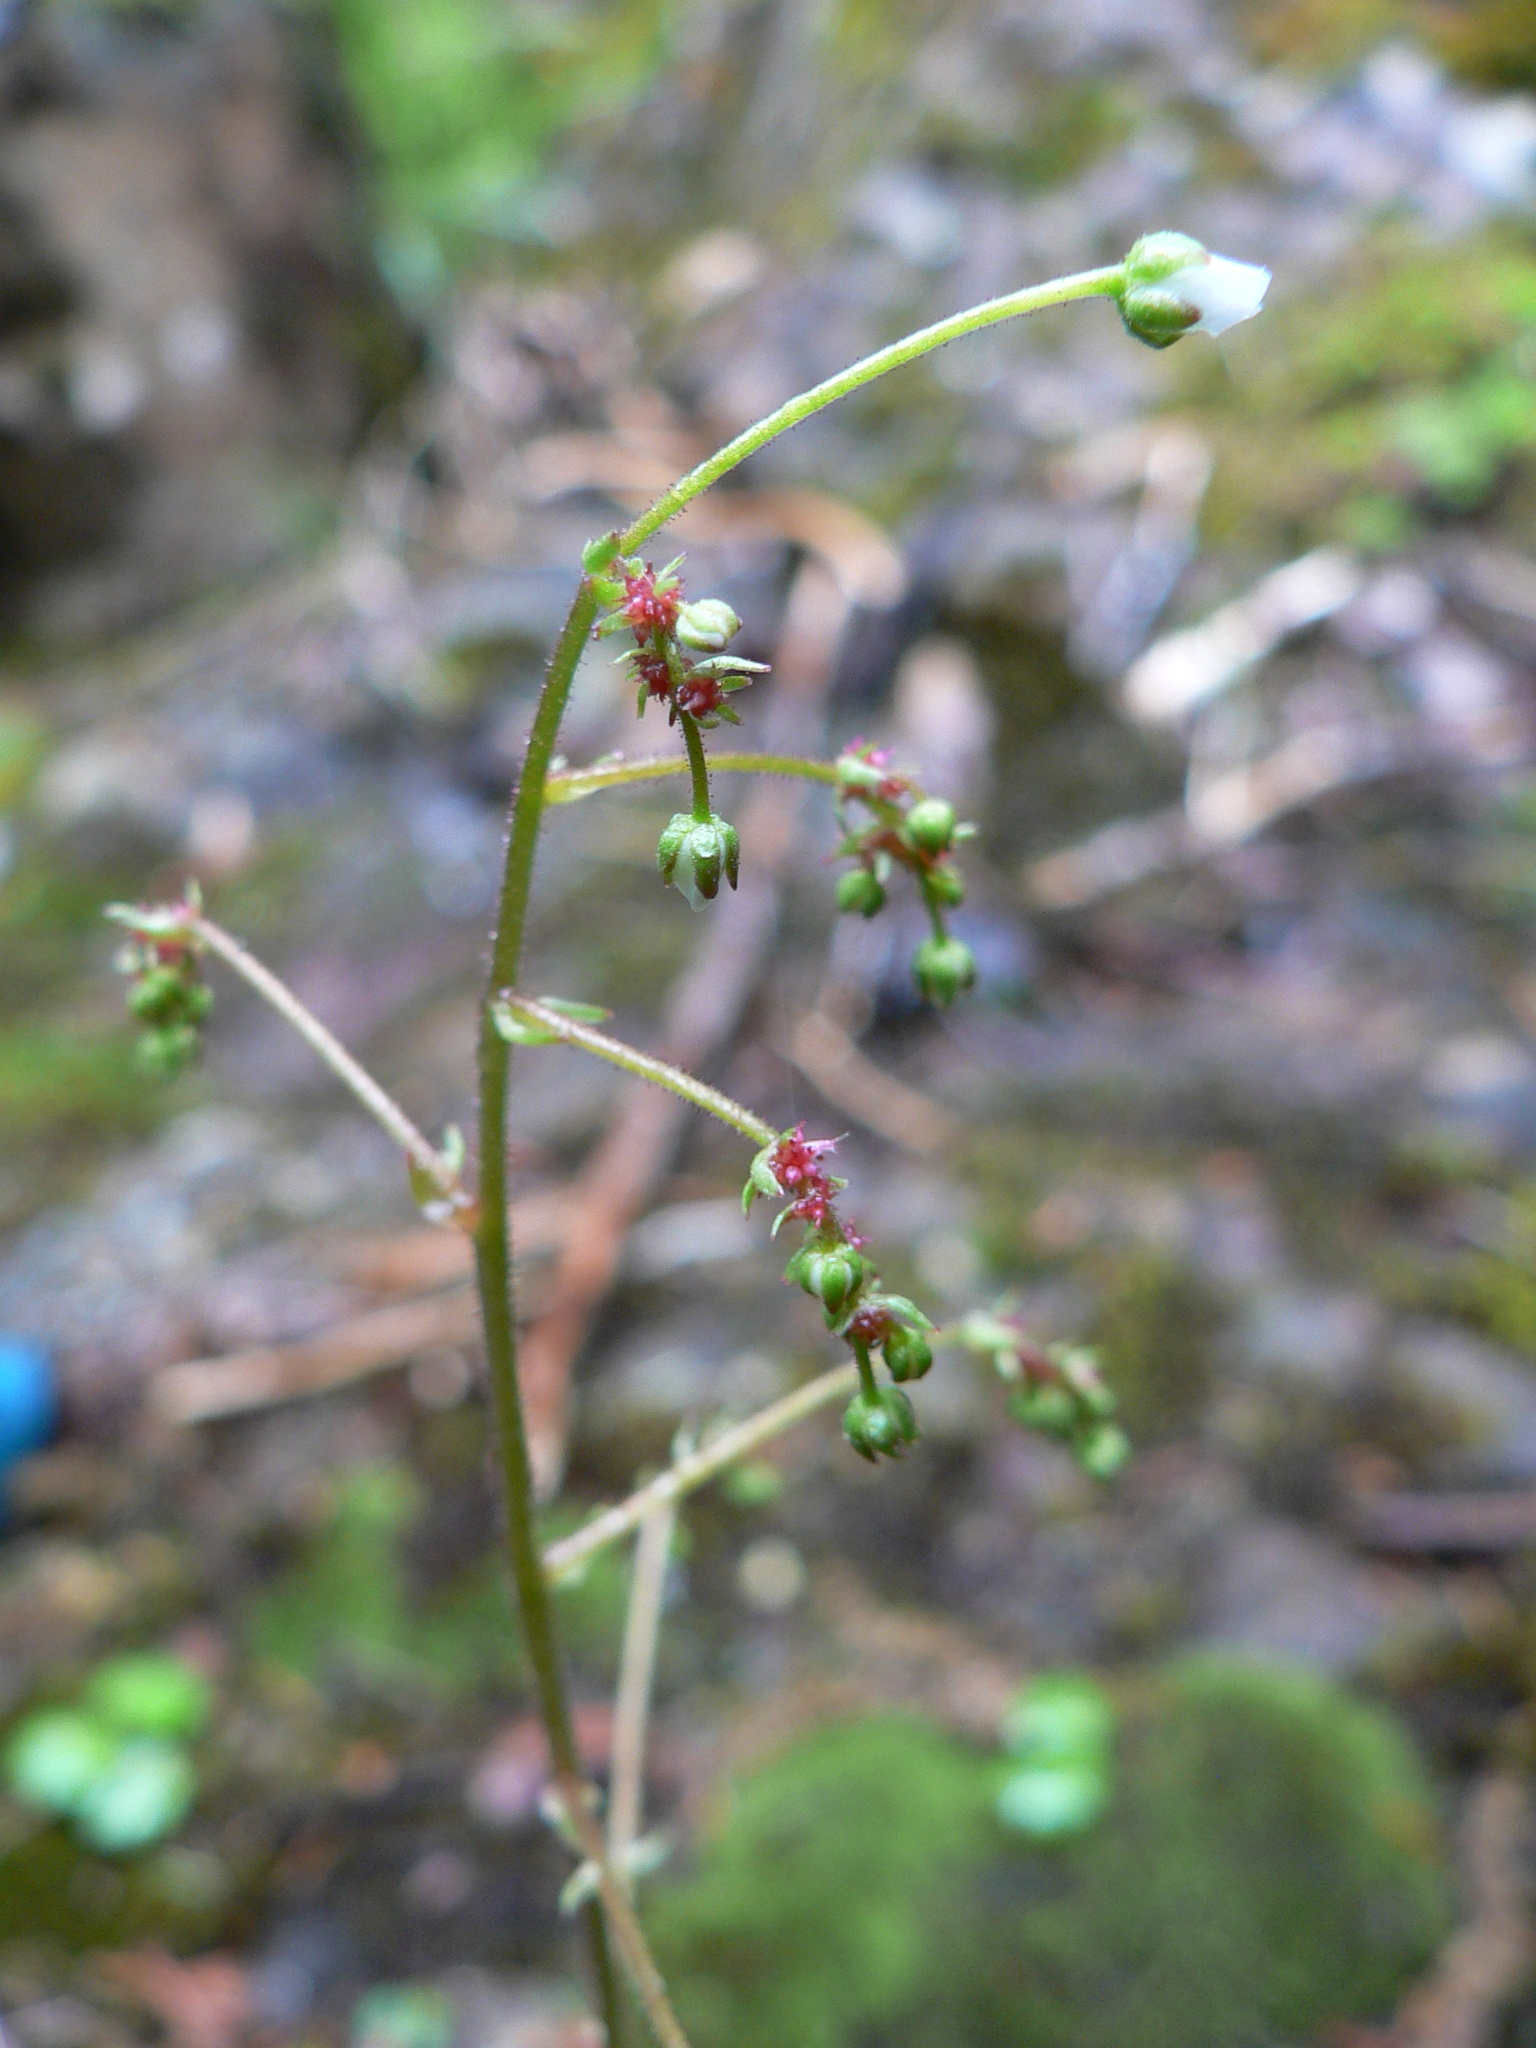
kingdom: Plantae
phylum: Tracheophyta
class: Magnoliopsida
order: Saxifragales
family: Saxifragaceae
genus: Micranthes
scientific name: Micranthes mertensiana
